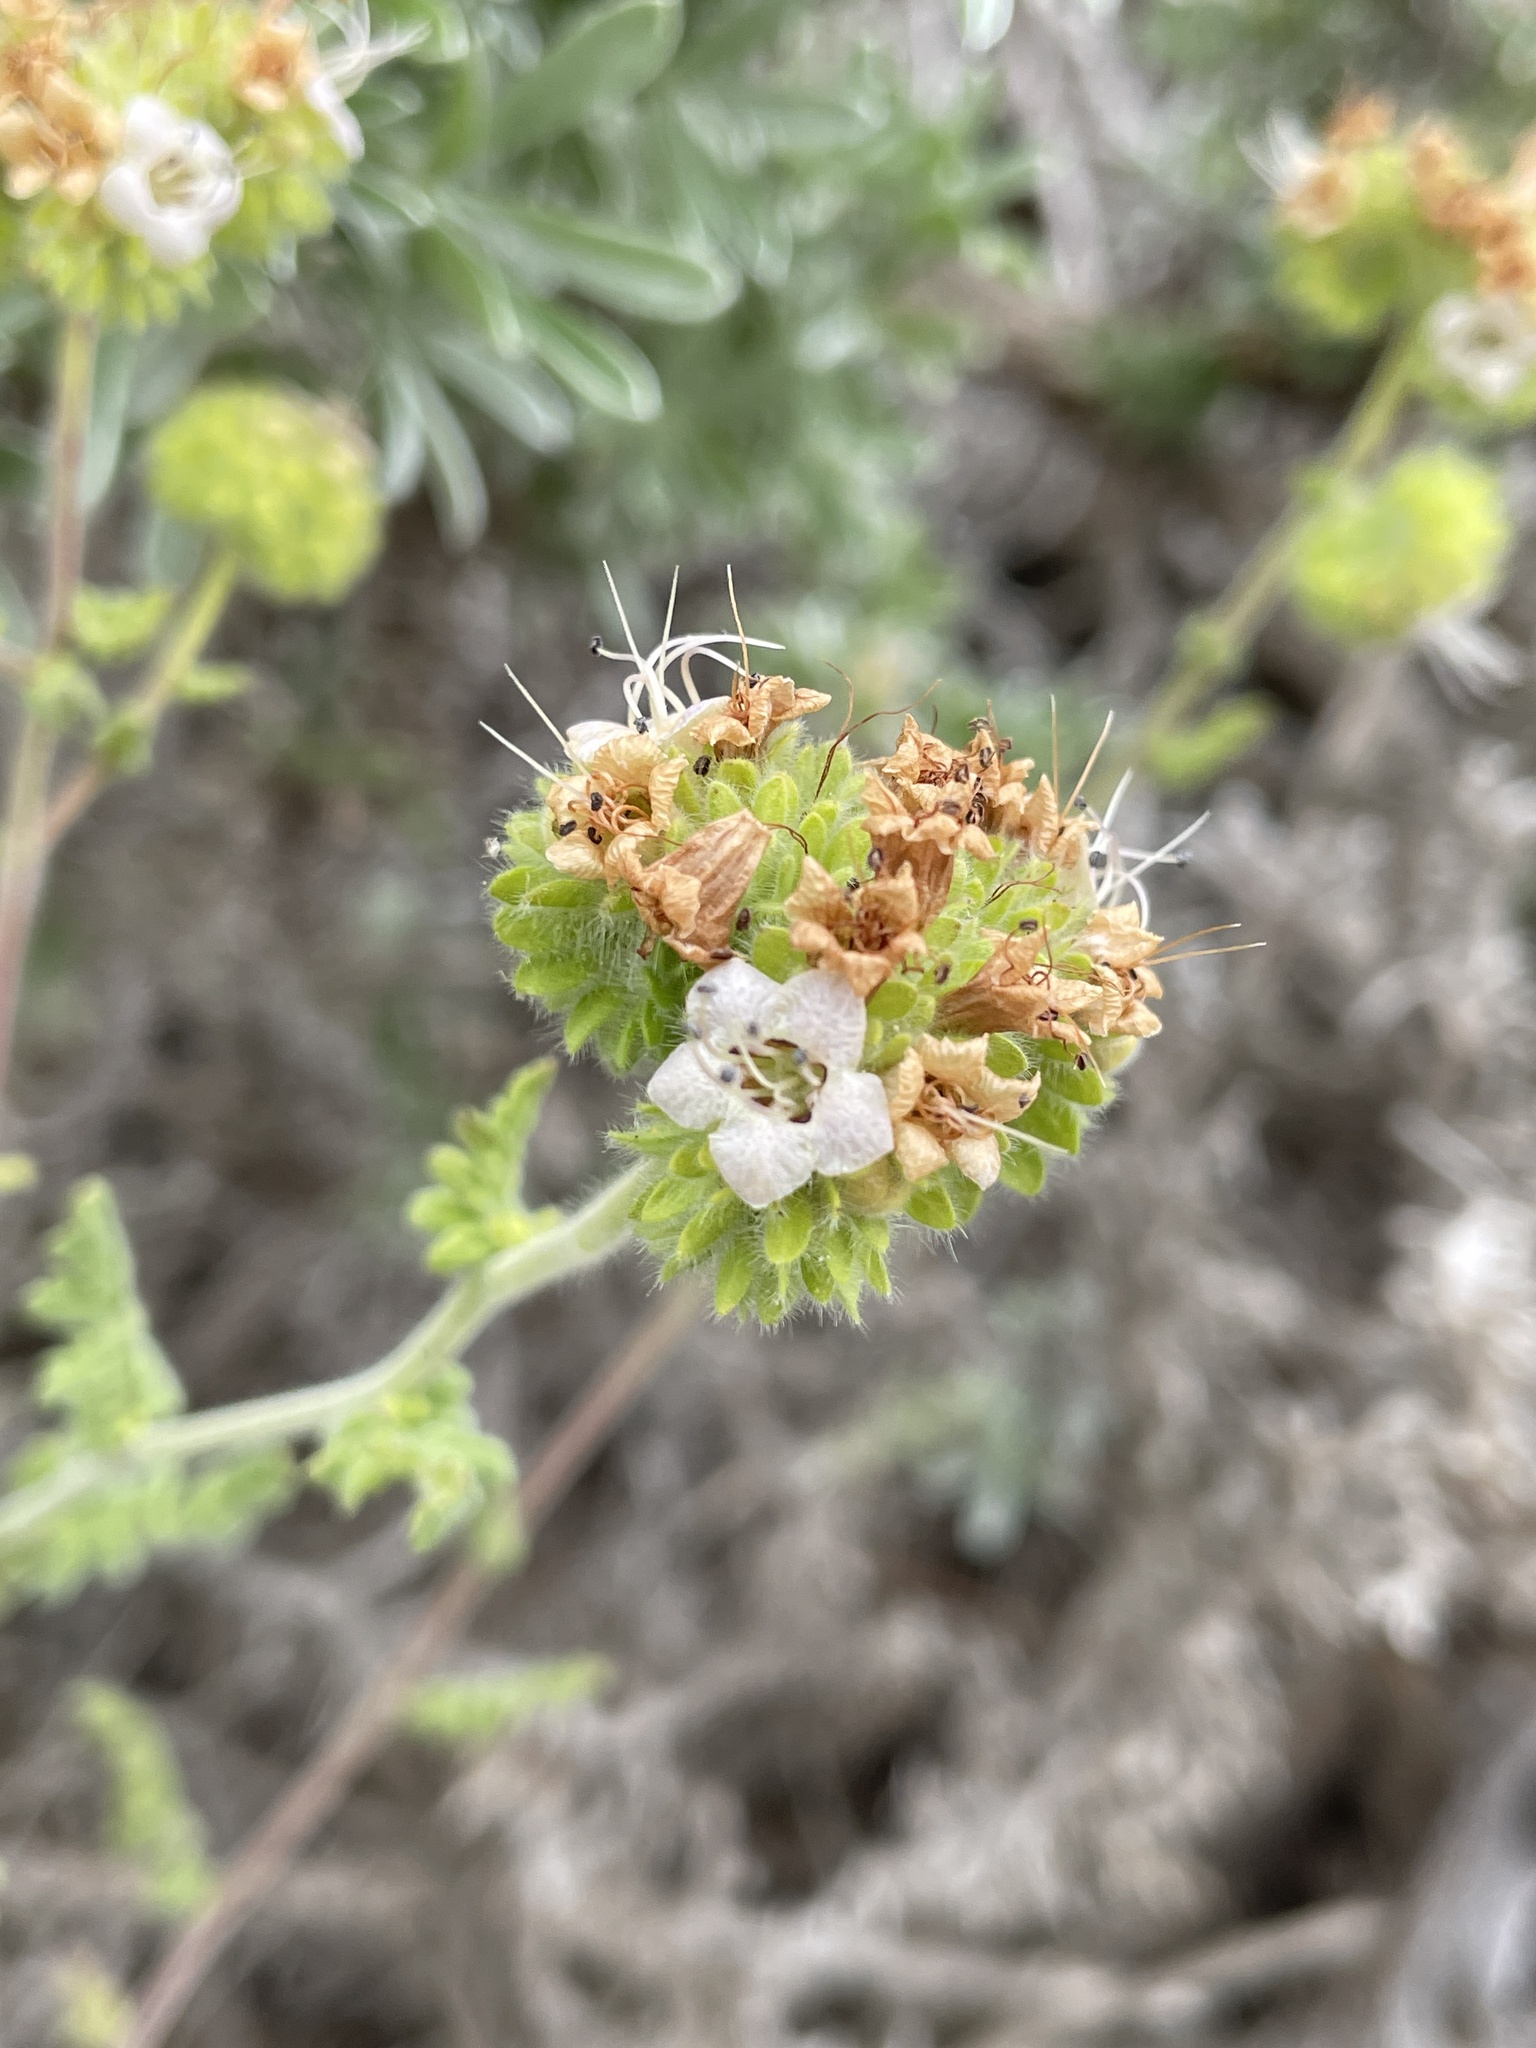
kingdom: Plantae
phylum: Tracheophyta
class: Magnoliopsida
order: Boraginales
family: Hydrophyllaceae
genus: Phacelia
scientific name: Phacelia ramosissima
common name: Branching phacelia
